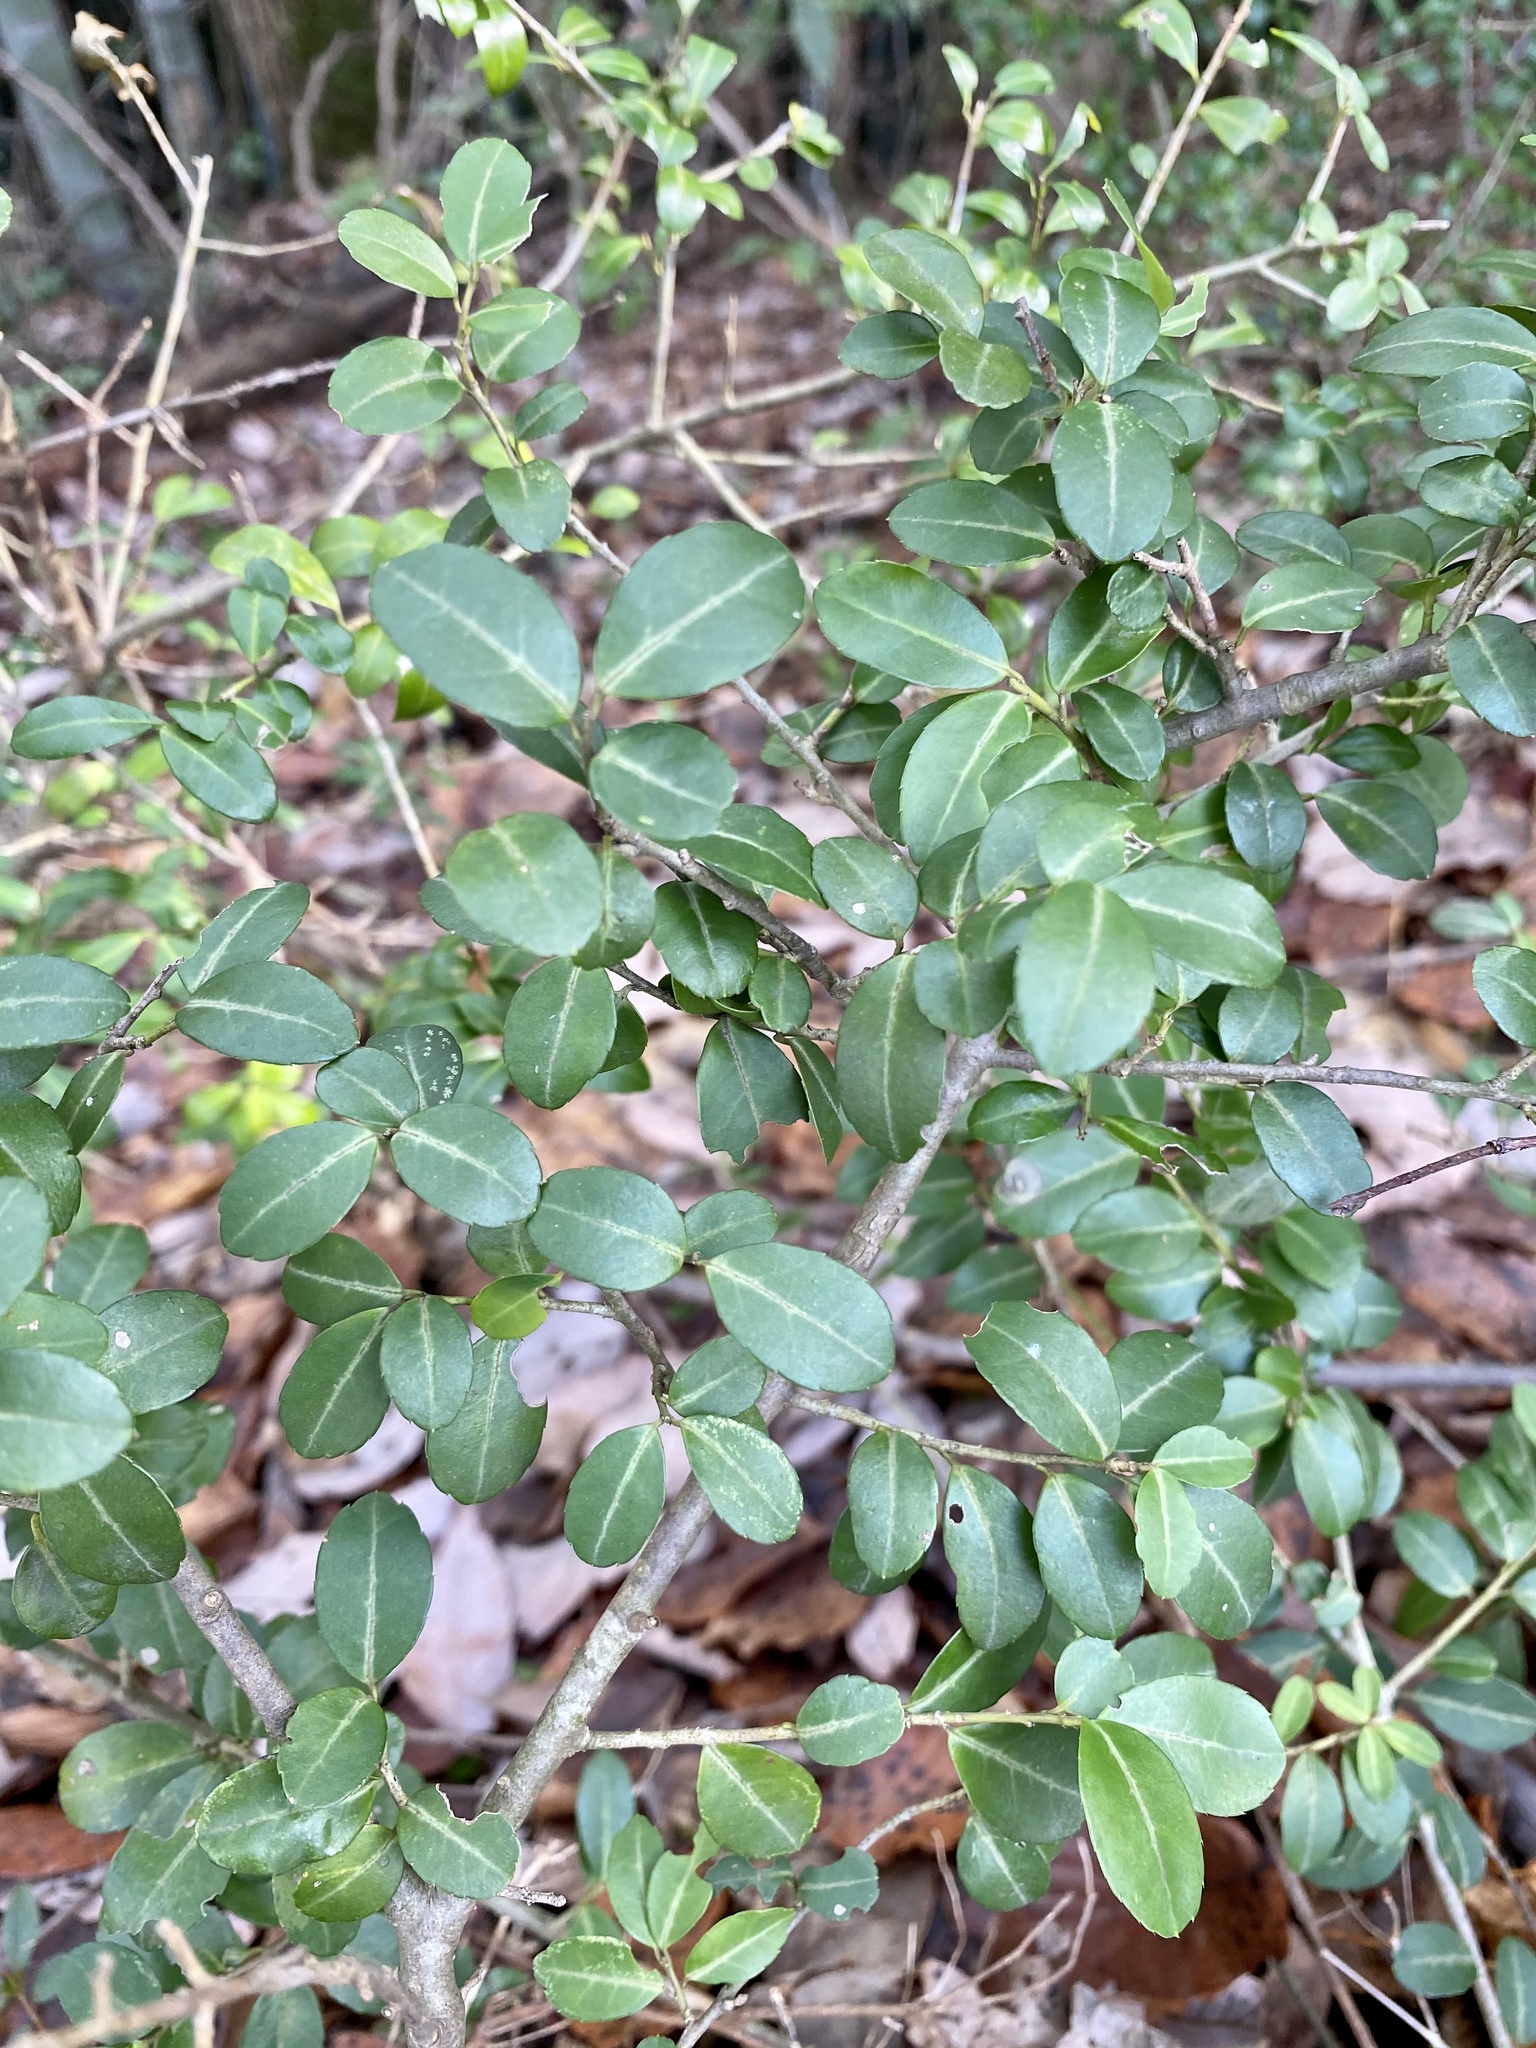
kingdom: Plantae
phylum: Tracheophyta
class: Magnoliopsida
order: Aquifoliales
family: Aquifoliaceae
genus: Ilex
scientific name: Ilex crenata
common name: Japanese holly
